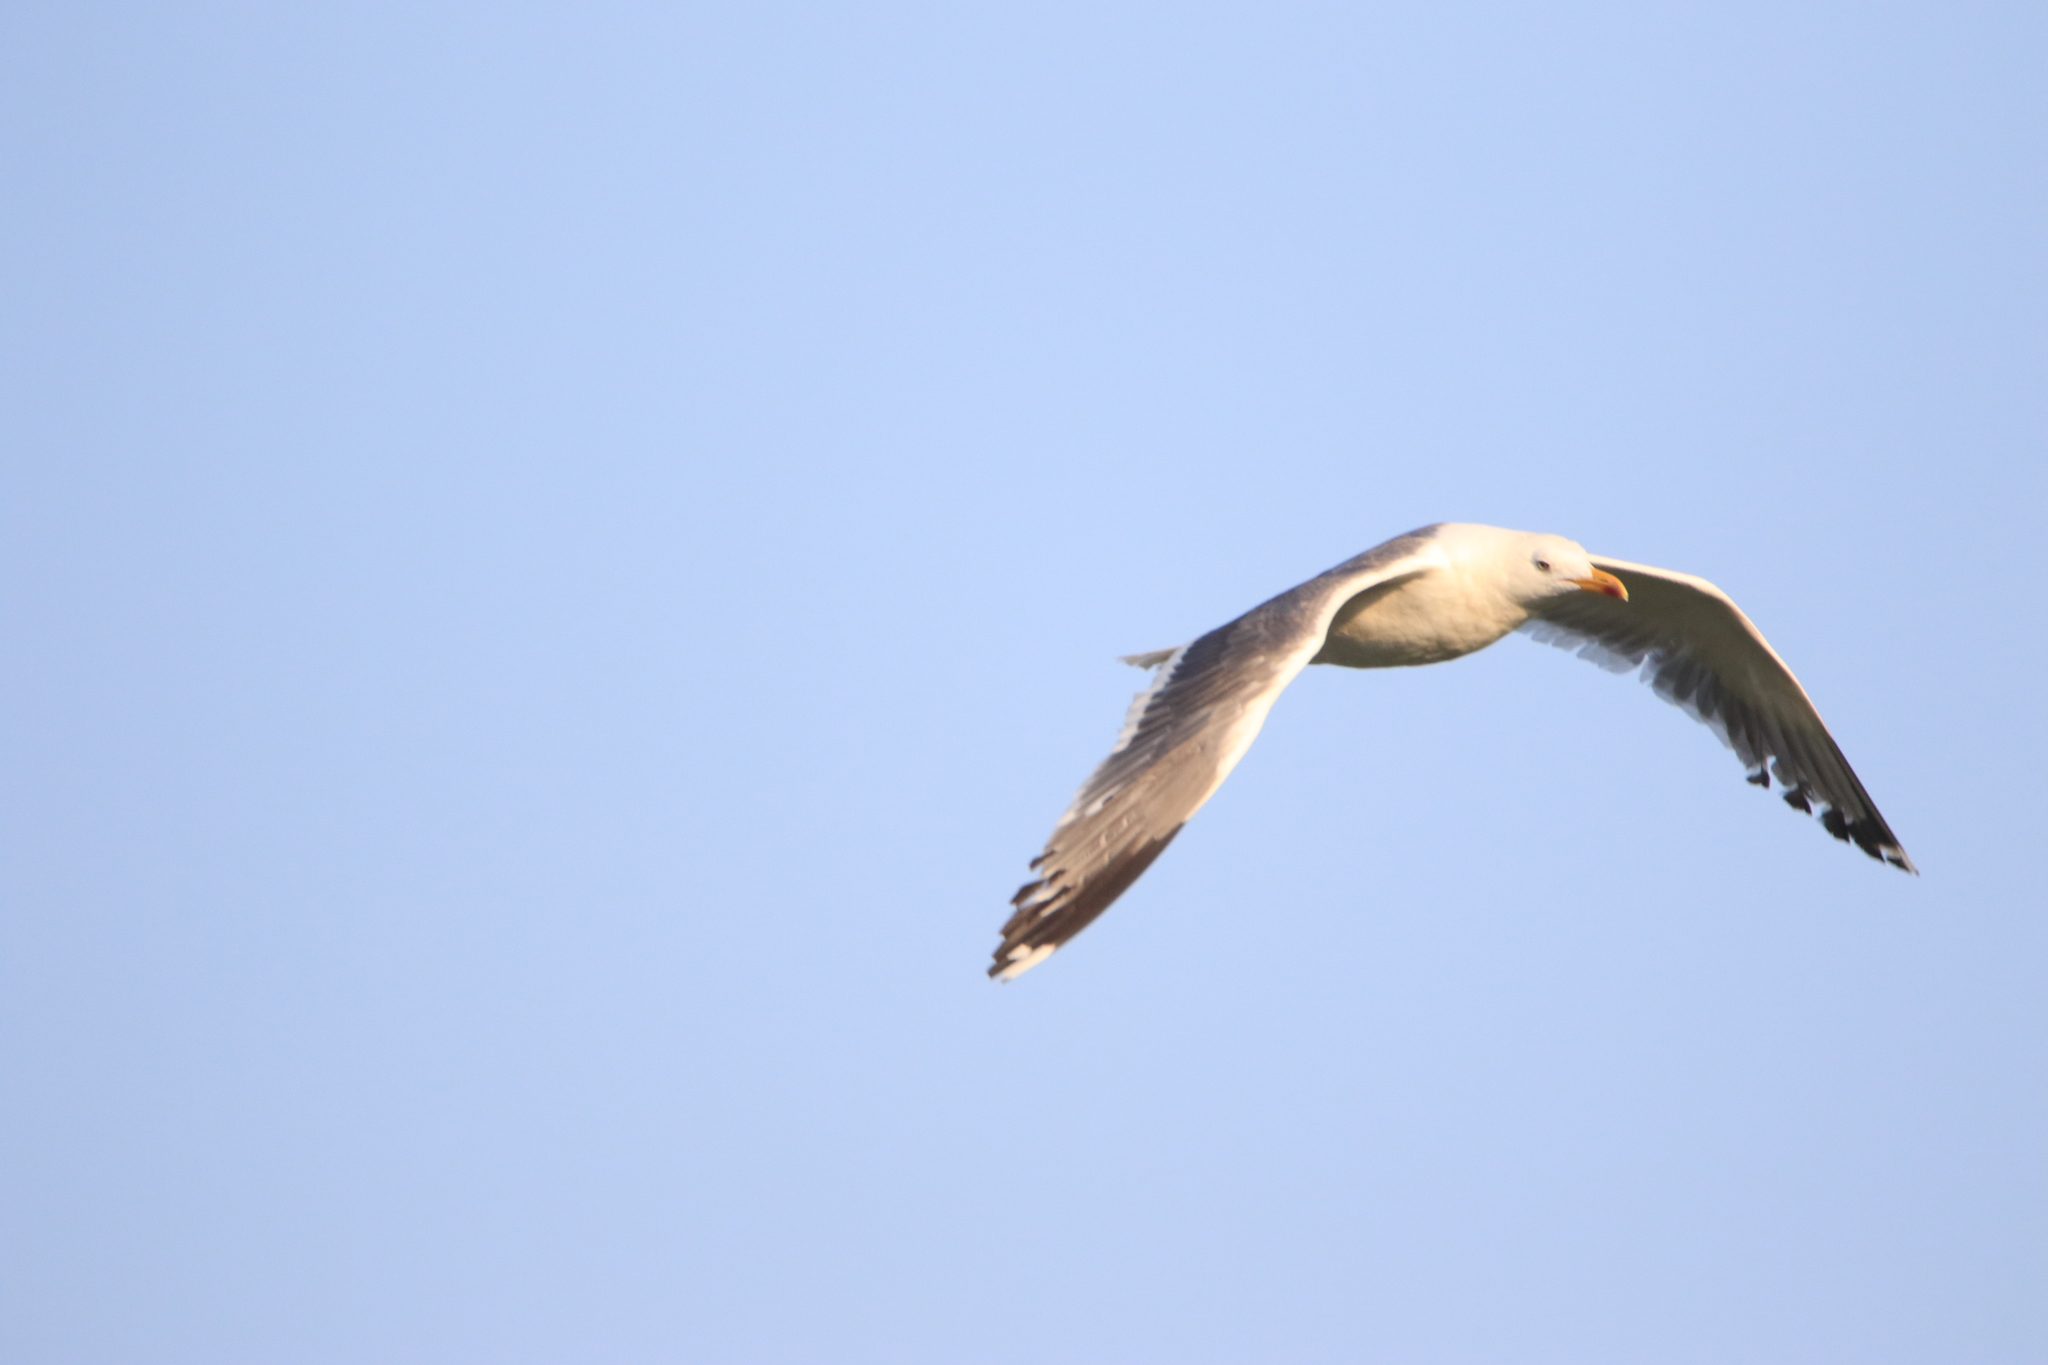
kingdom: Animalia
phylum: Chordata
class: Aves
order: Charadriiformes
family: Laridae
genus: Larus
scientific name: Larus fuscus
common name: Lesser black-backed gull
